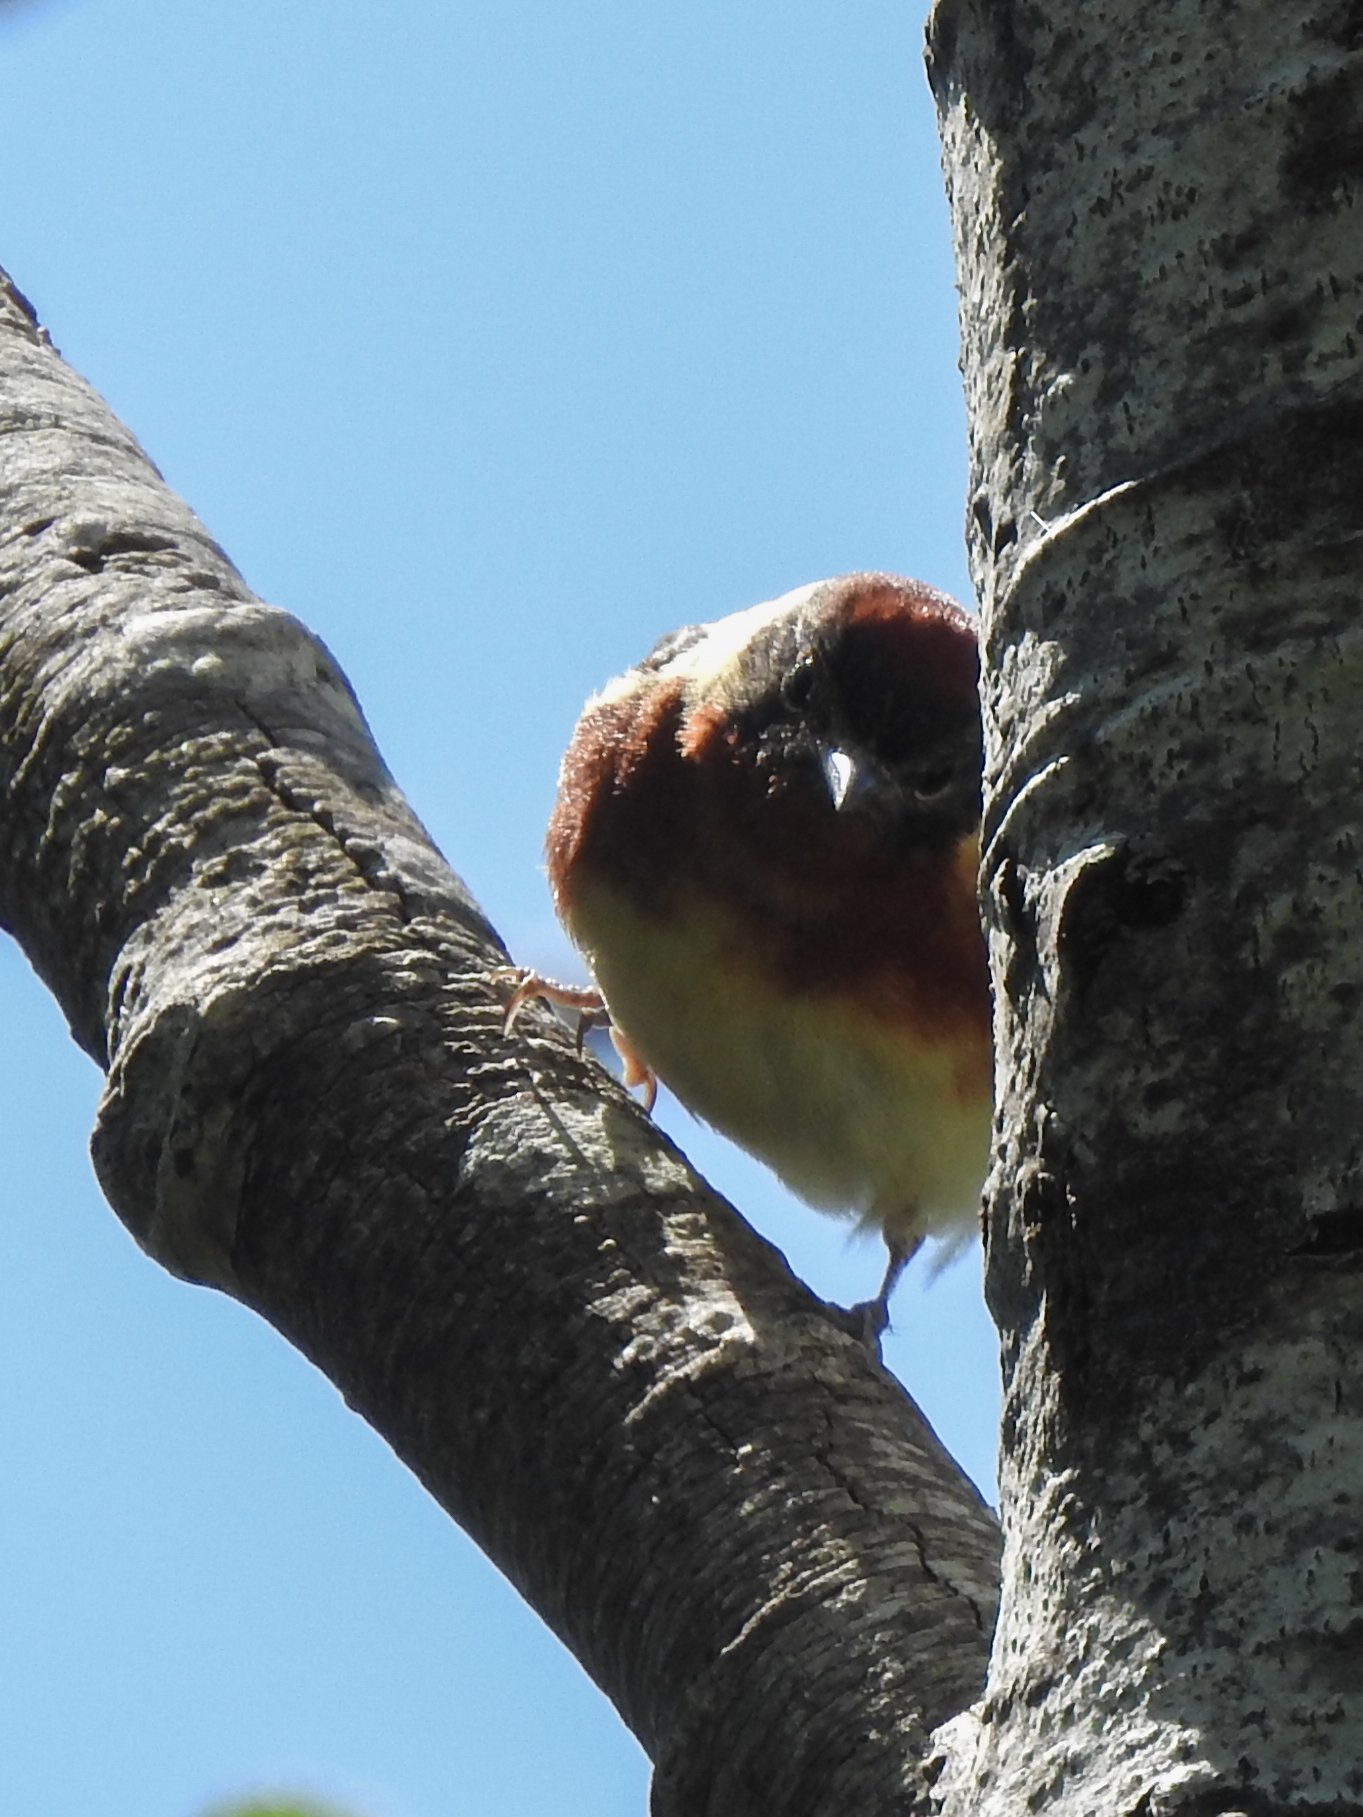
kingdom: Animalia
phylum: Chordata
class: Aves
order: Passeriformes
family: Parulidae
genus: Setophaga
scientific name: Setophaga castanea
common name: Bay-breasted warbler
